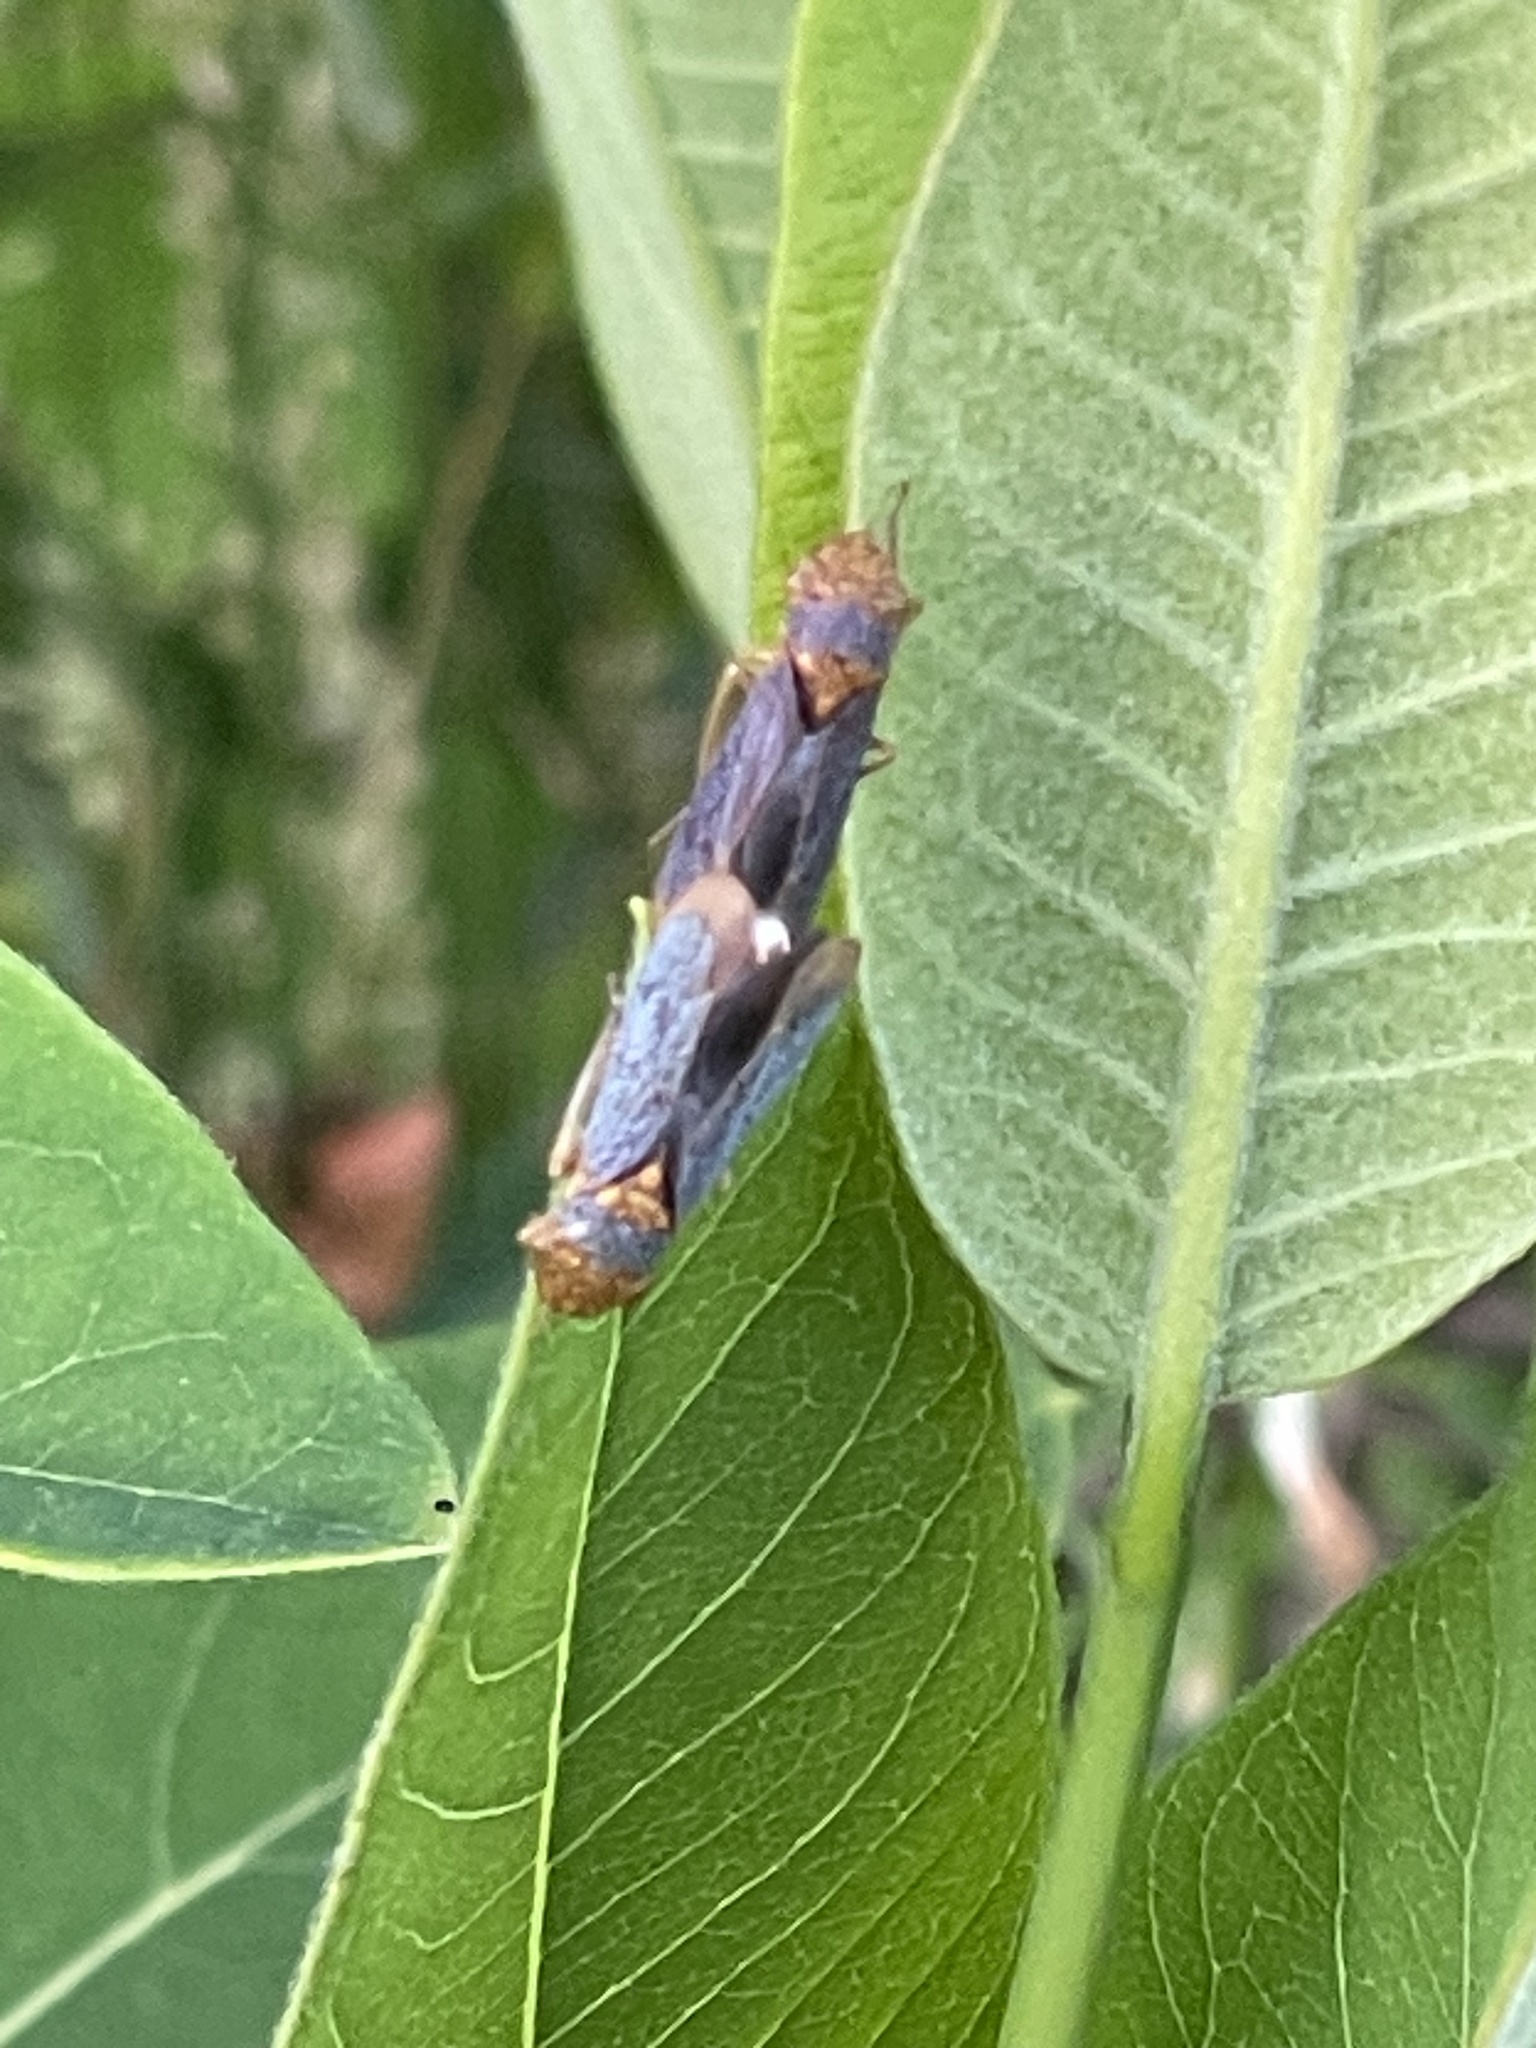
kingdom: Animalia
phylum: Arthropoda
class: Insecta
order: Hemiptera
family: Cicadellidae
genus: Oncometopia
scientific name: Oncometopia orbona
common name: Broad-headed sharpshooter
